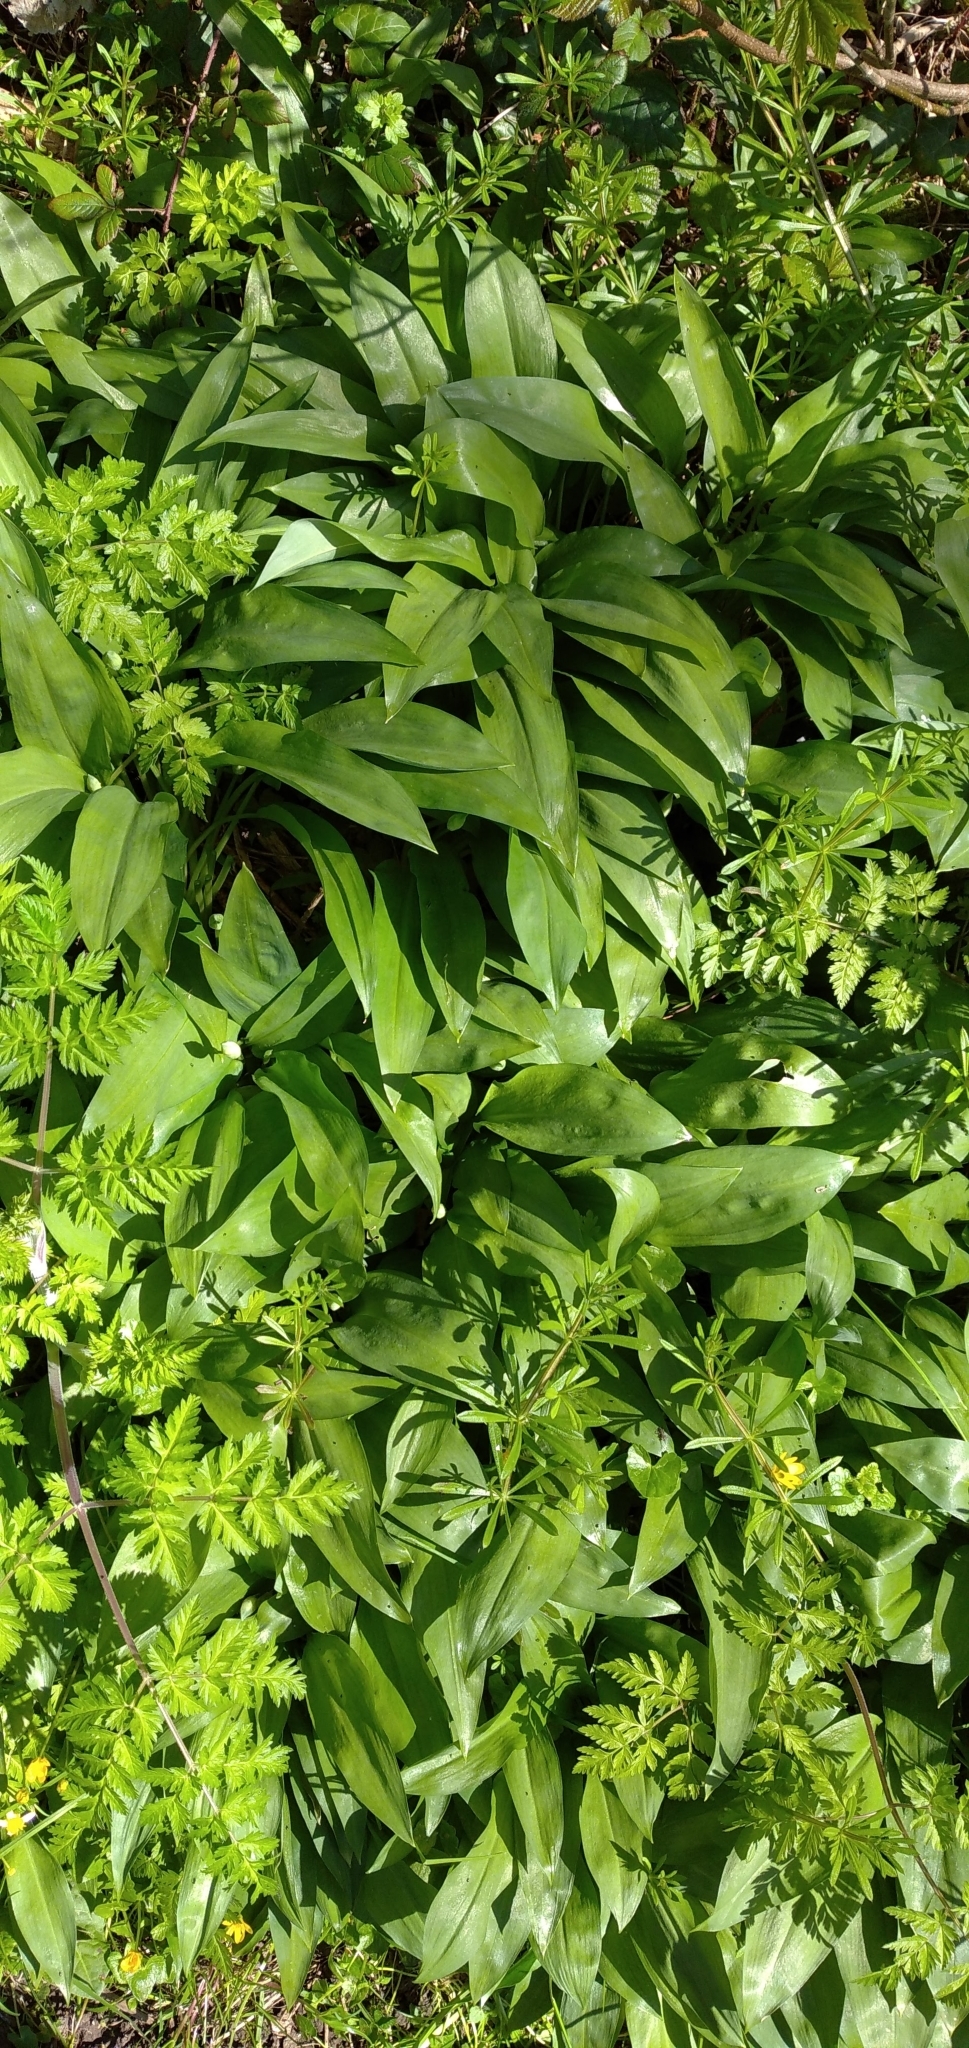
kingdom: Plantae
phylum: Tracheophyta
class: Liliopsida
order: Asparagales
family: Amaryllidaceae
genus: Allium
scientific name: Allium ursinum
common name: Ramsons
